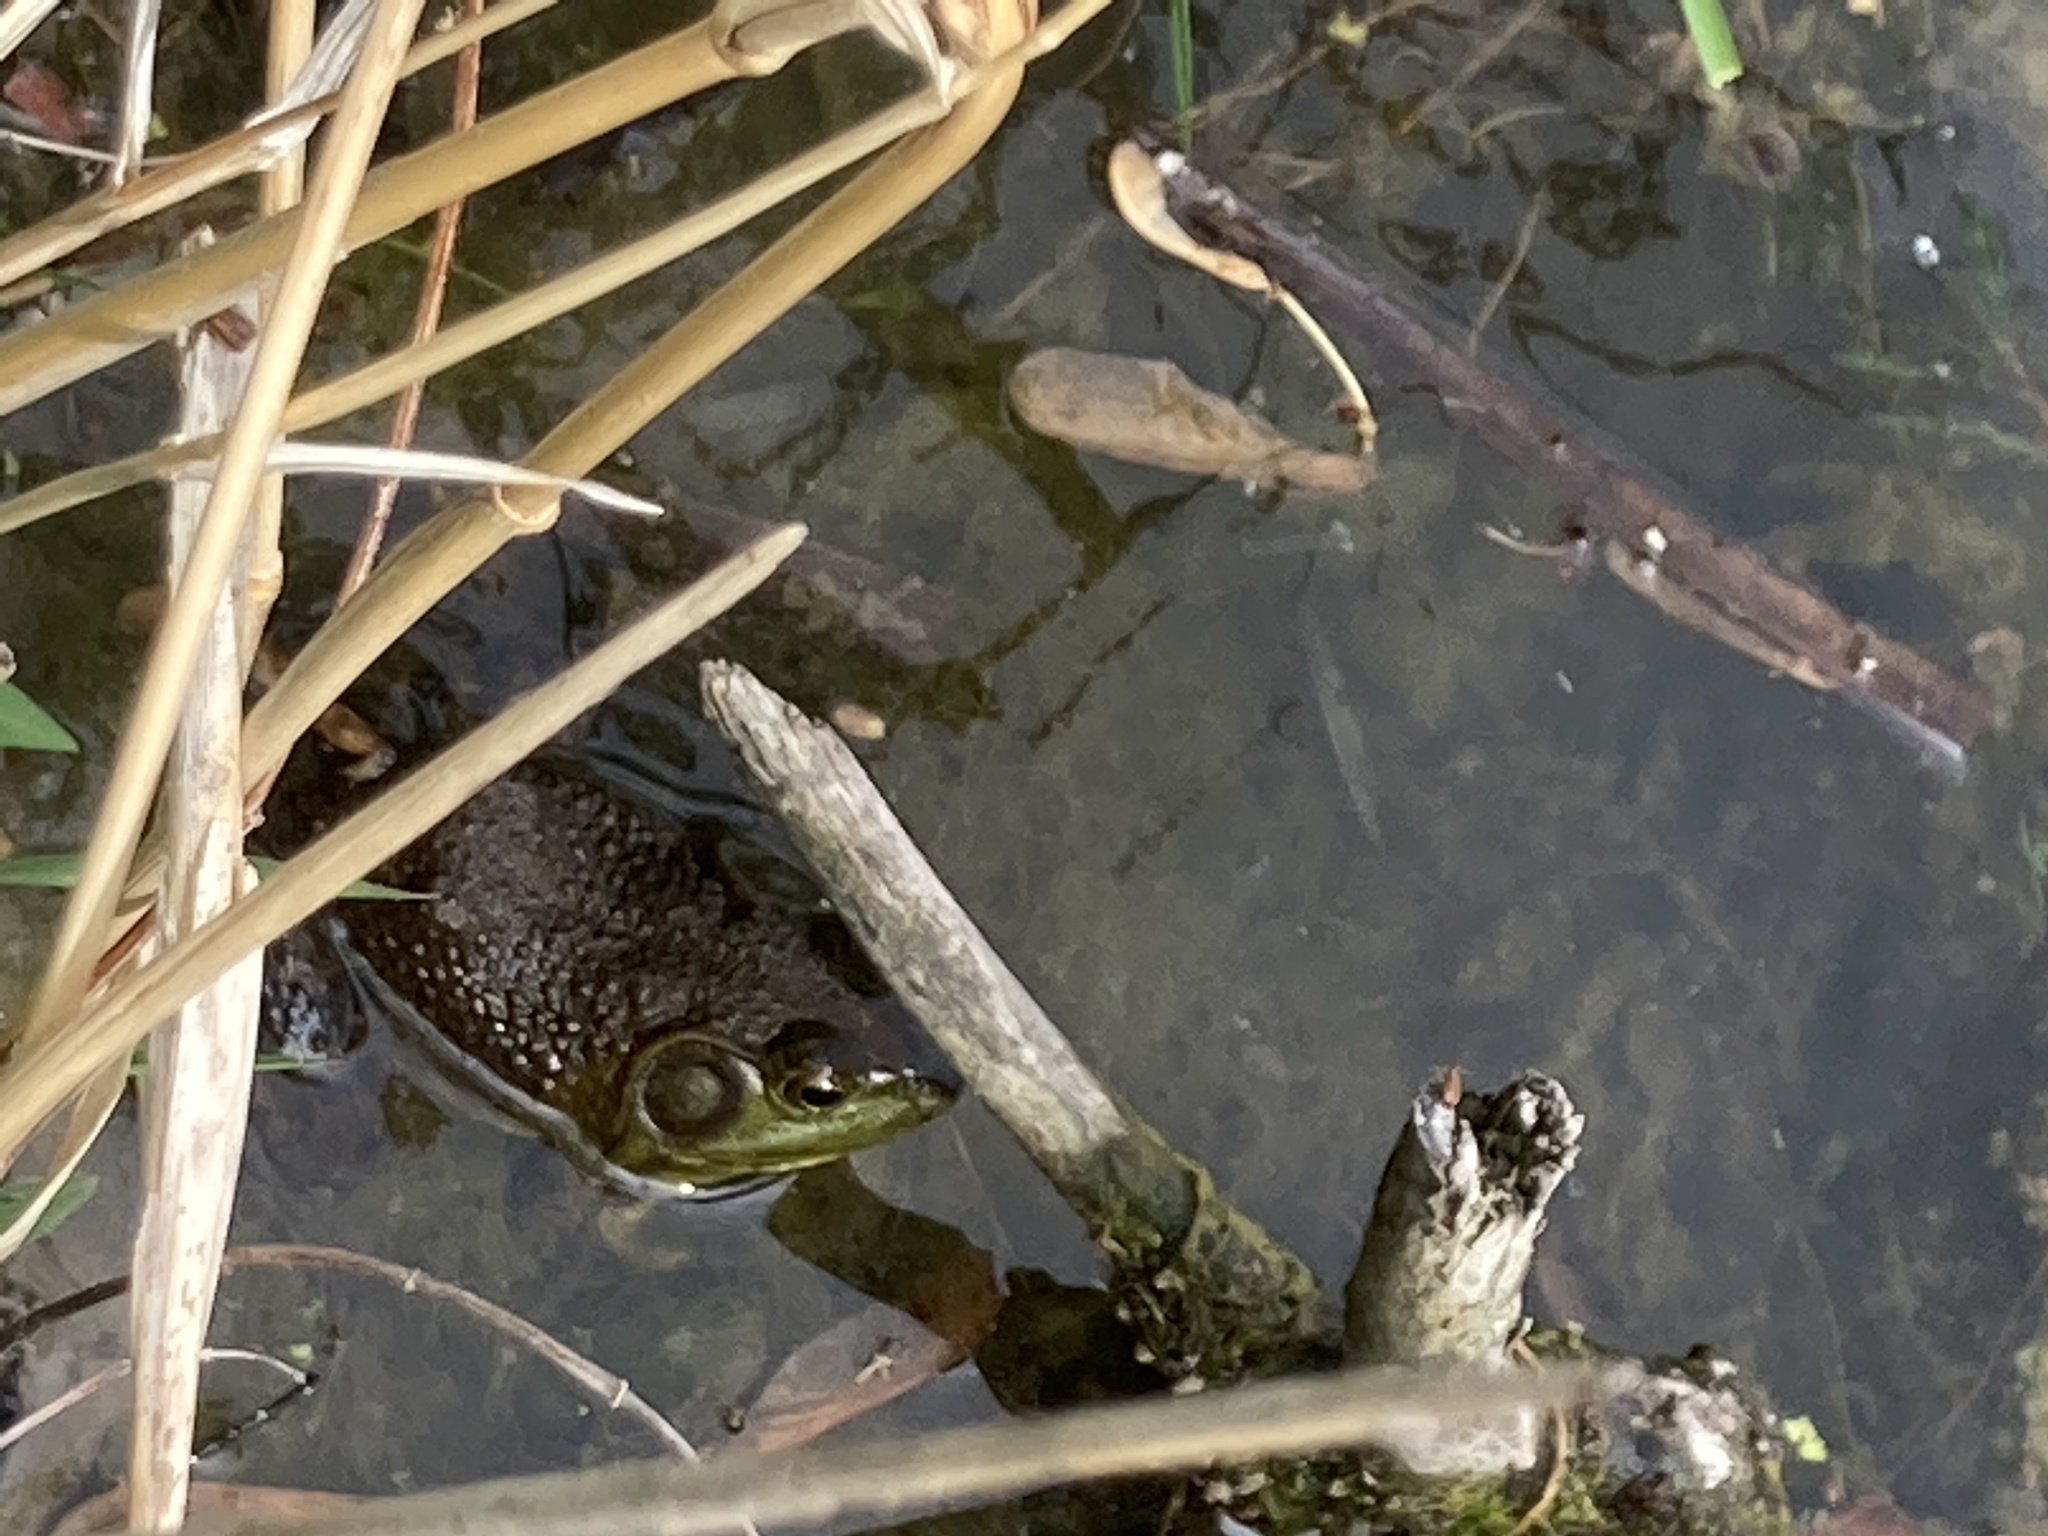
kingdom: Animalia
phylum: Chordata
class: Amphibia
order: Anura
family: Ranidae
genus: Lithobates
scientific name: Lithobates catesbeianus
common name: American bullfrog
